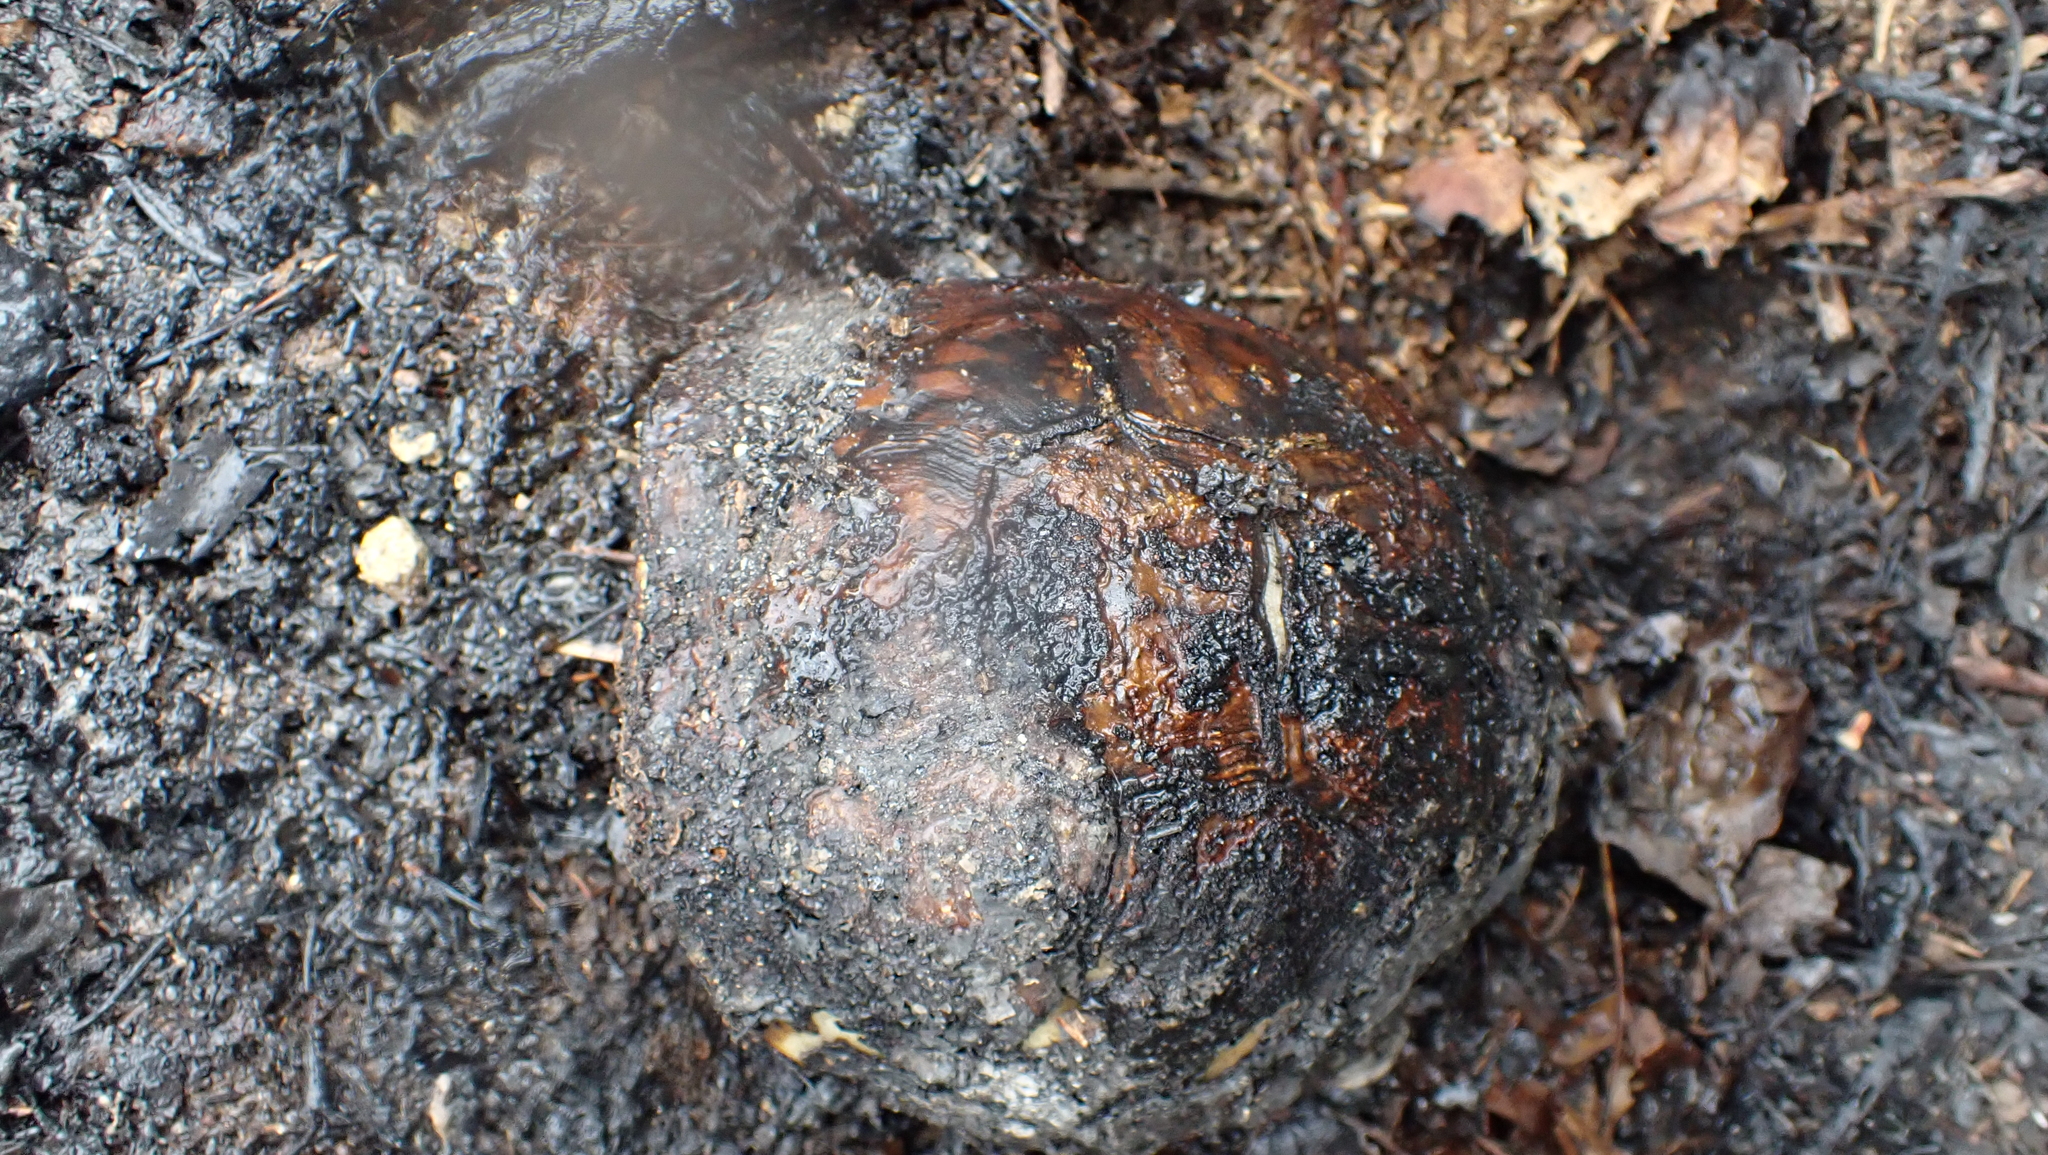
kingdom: Animalia
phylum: Chordata
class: Testudines
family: Emydidae
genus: Terrapene
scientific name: Terrapene carolina
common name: Common box turtle
